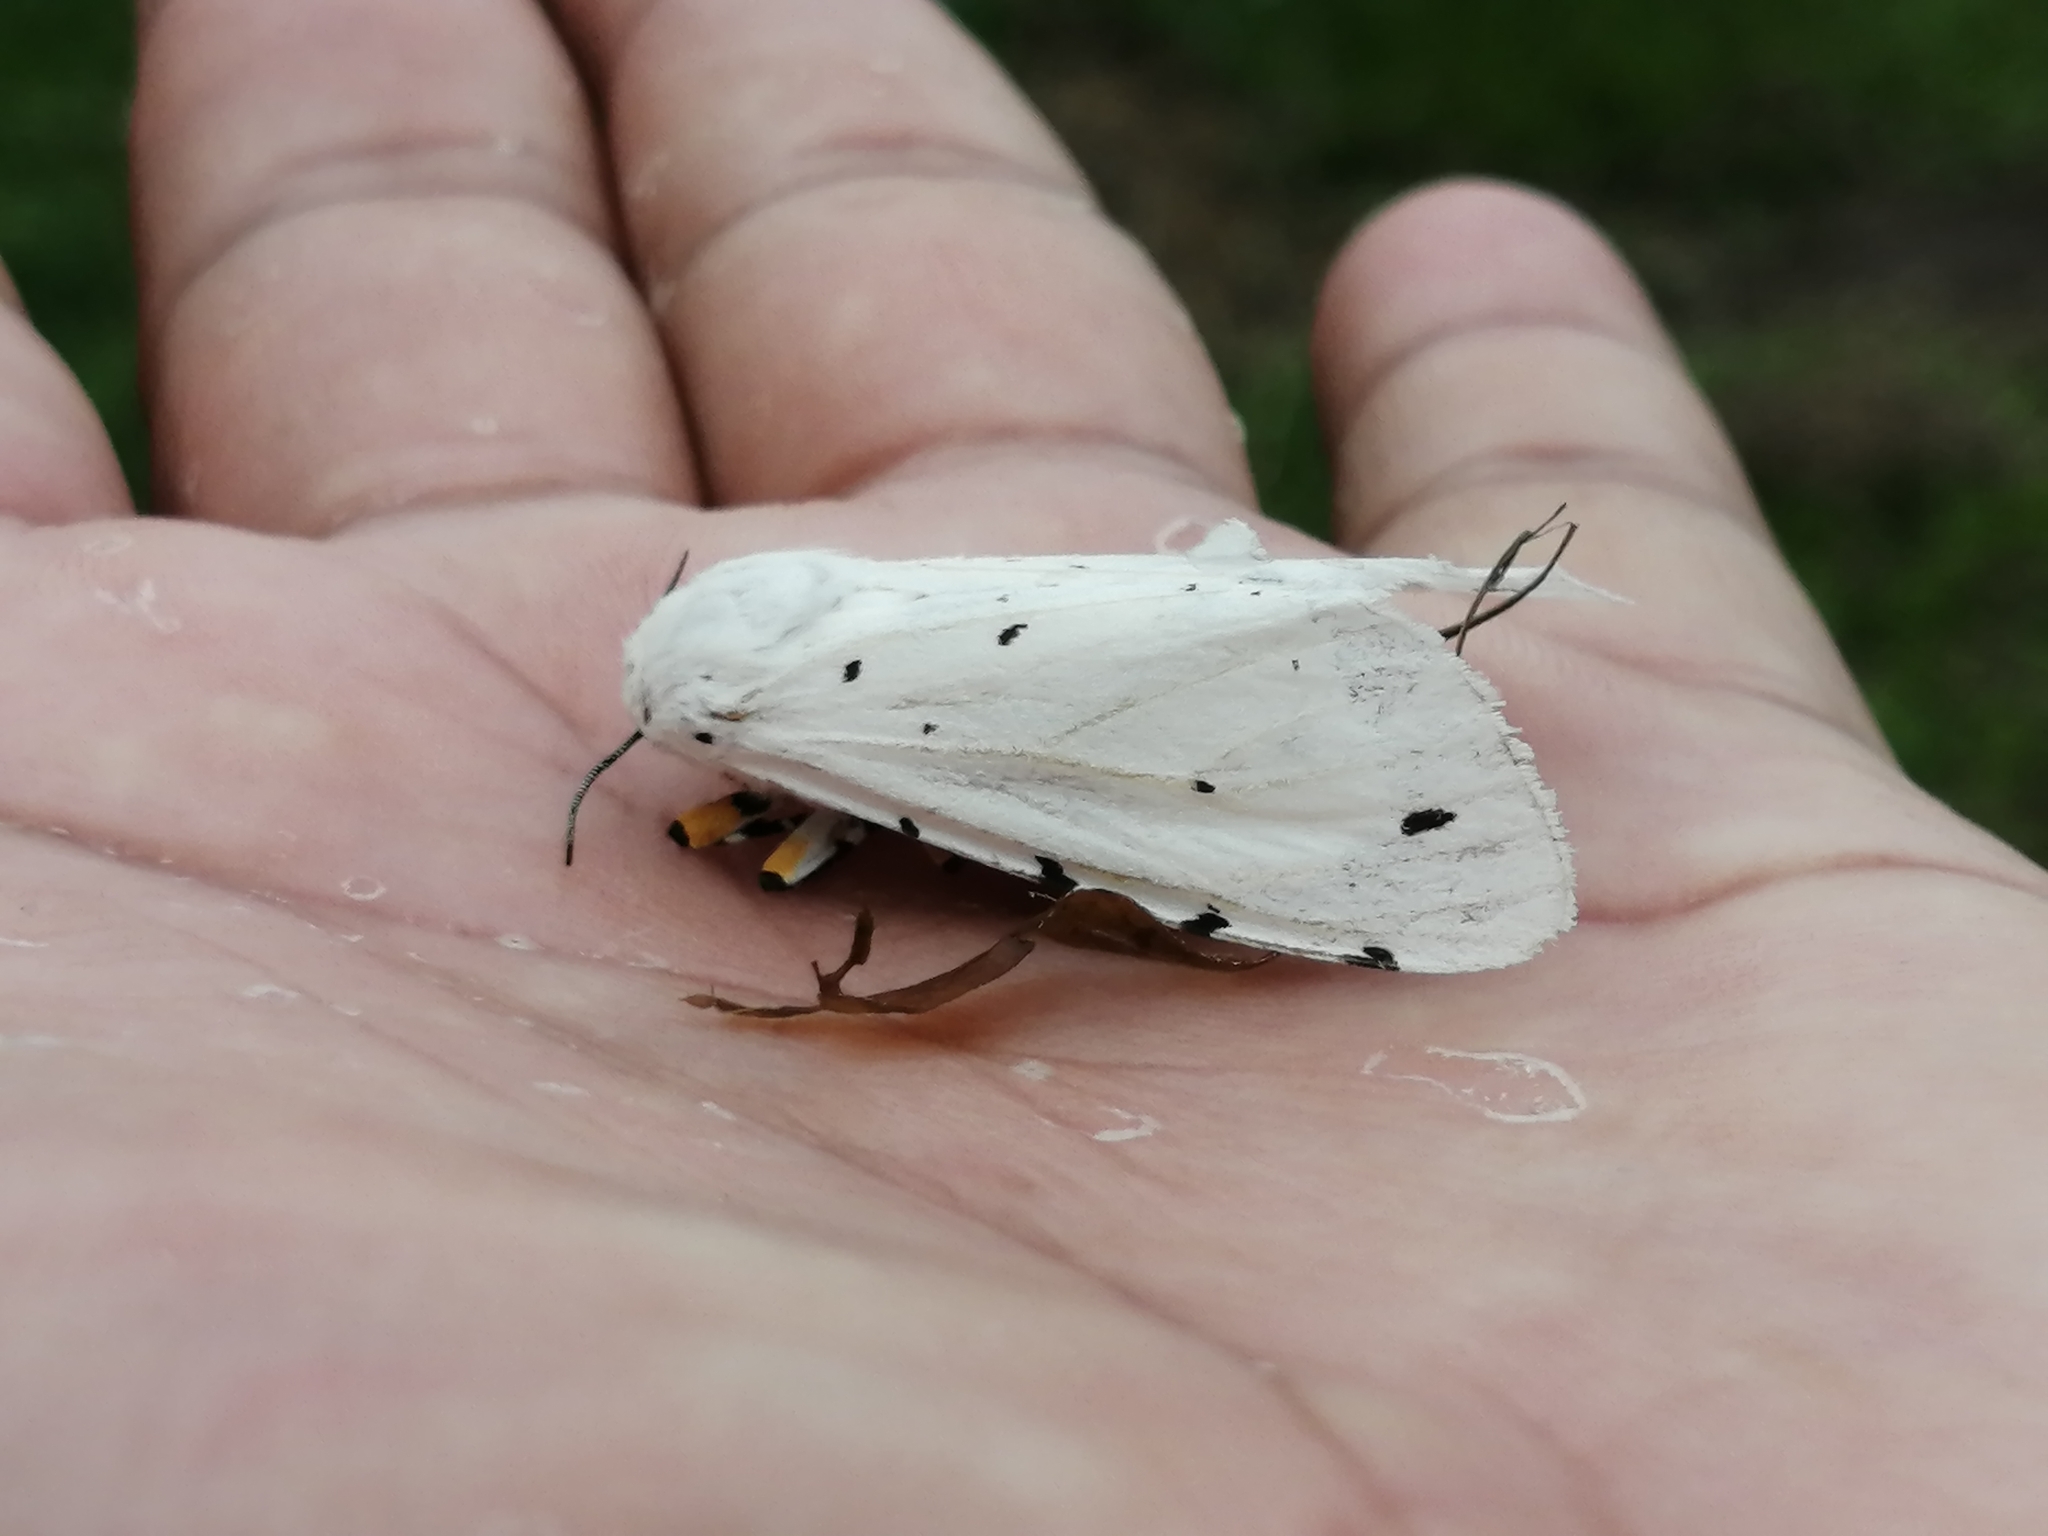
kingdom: Animalia
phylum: Arthropoda
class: Insecta
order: Lepidoptera
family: Erebidae
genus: Estigmene
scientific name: Estigmene acrea
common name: Salt marsh moth
